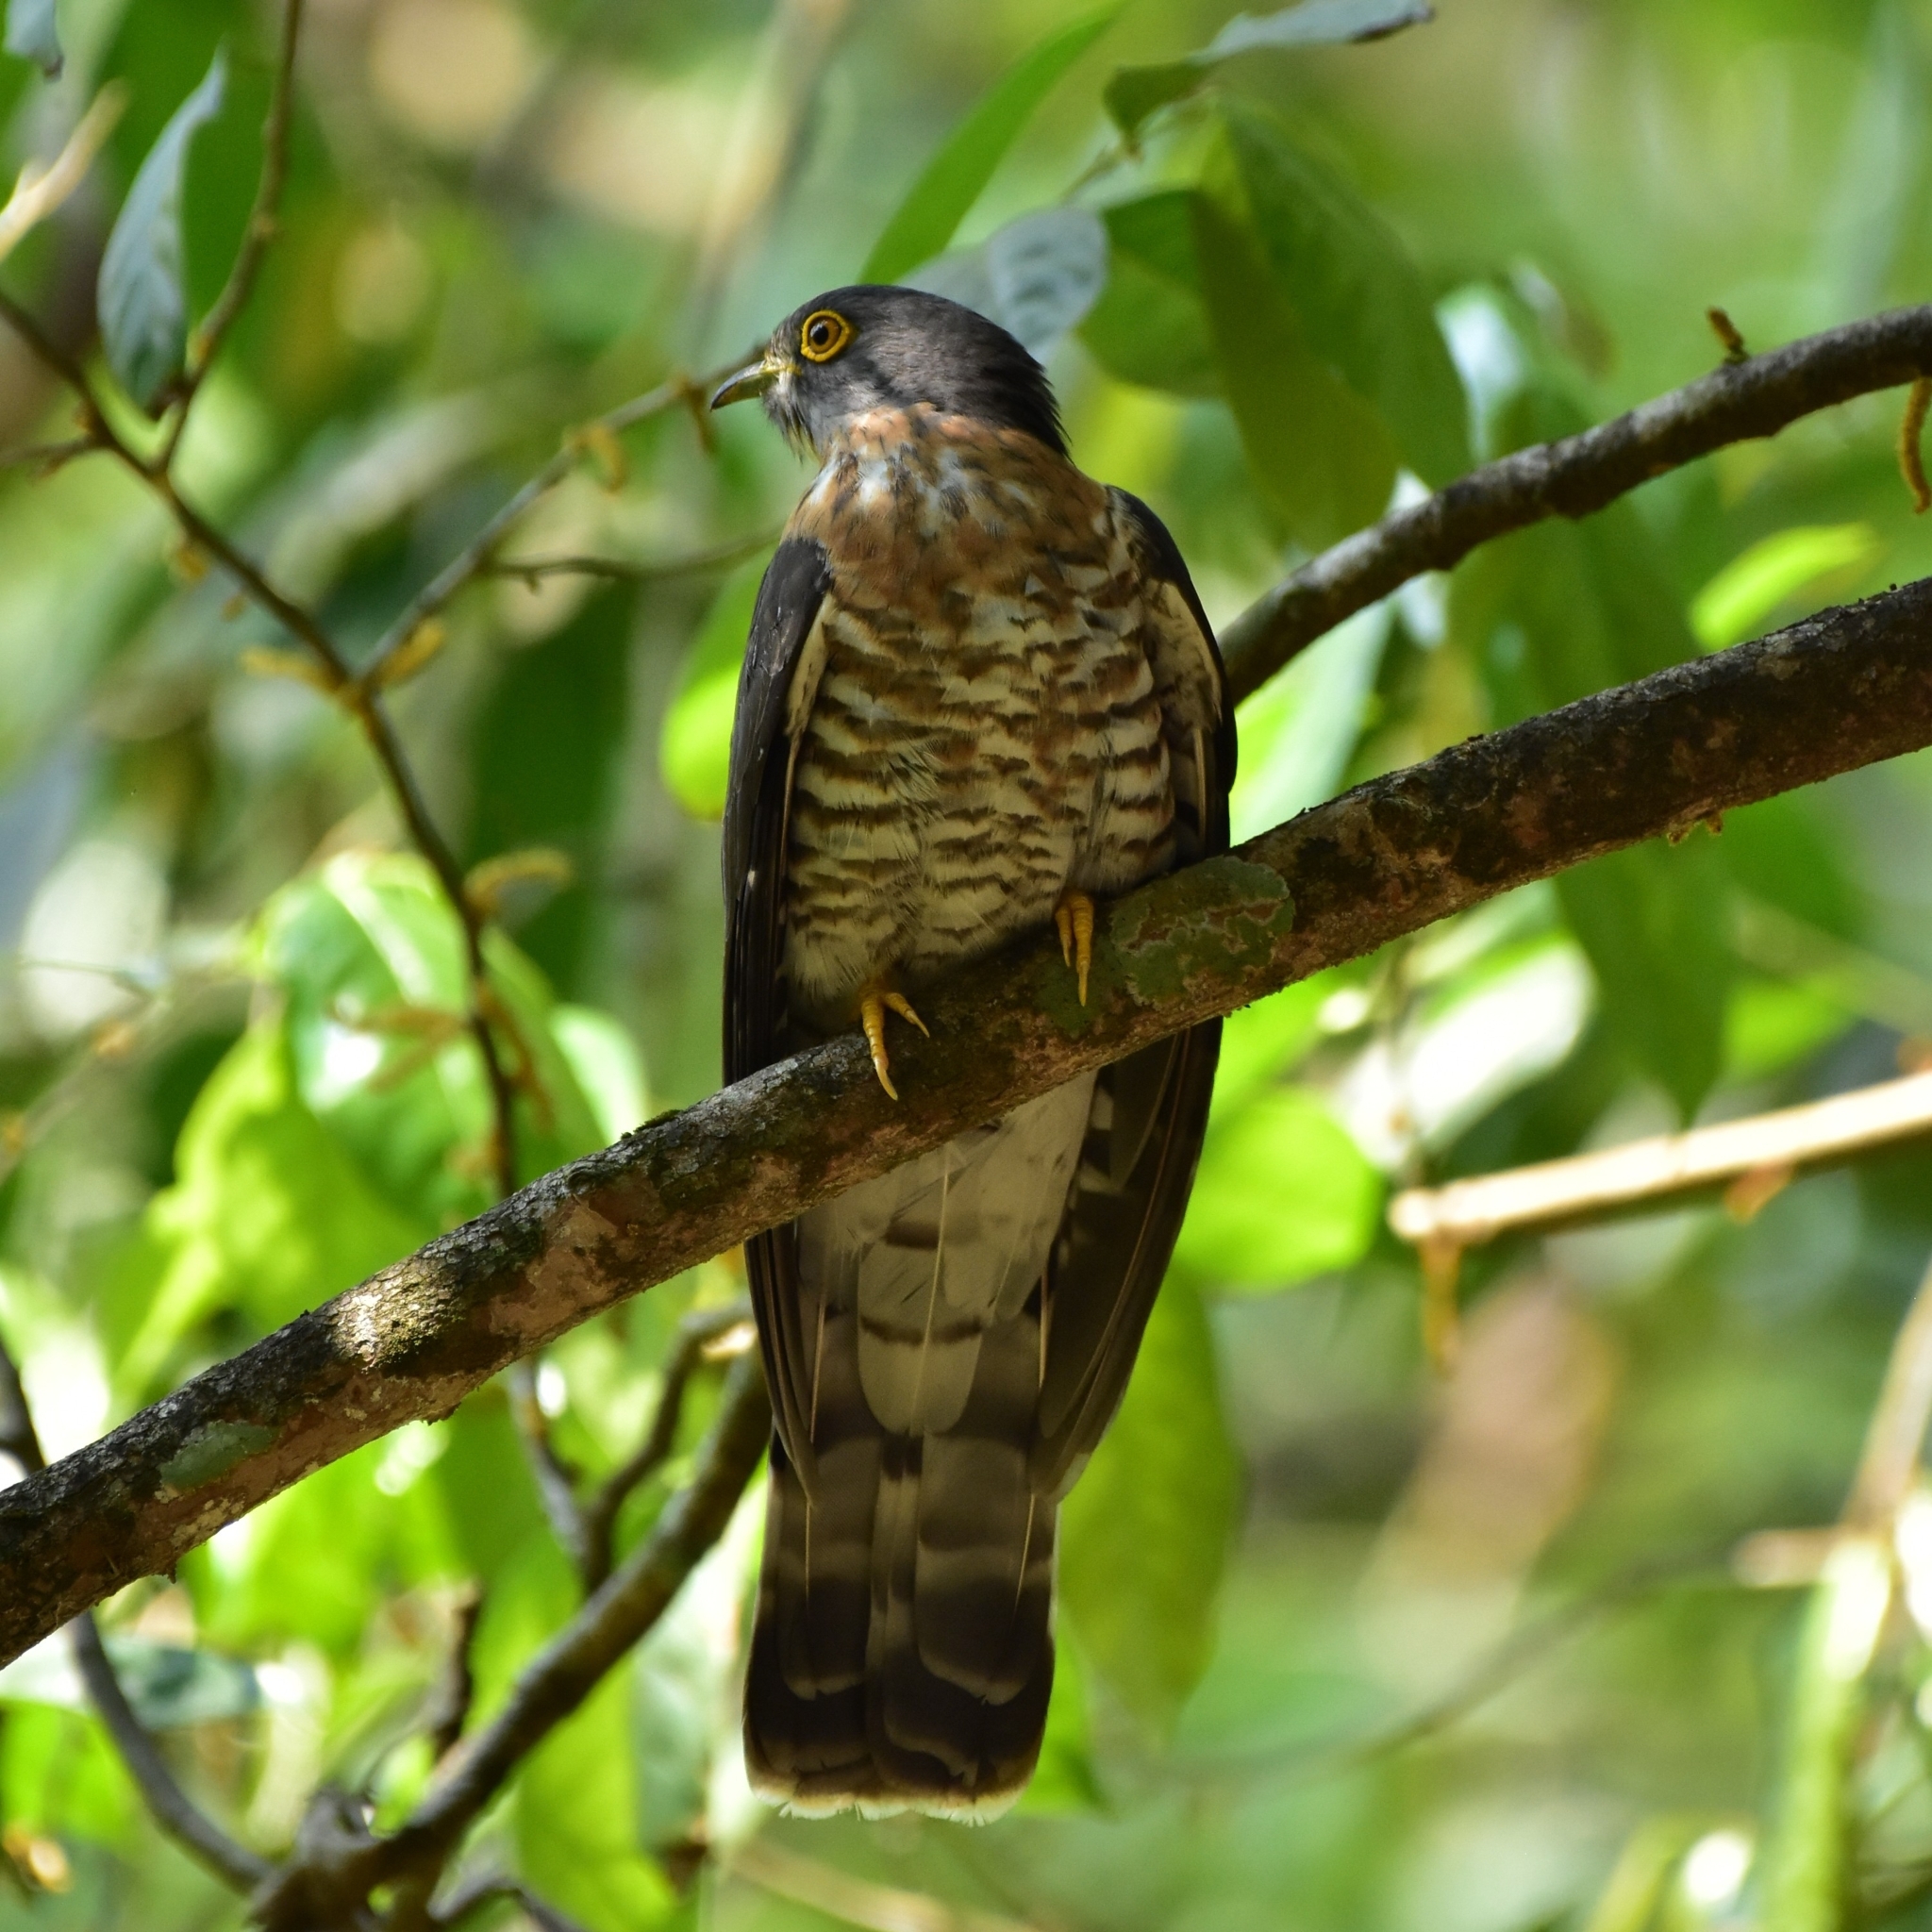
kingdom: Animalia
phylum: Chordata
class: Aves
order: Cuculiformes
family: Cuculidae
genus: Cuculus
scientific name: Cuculus sparverioides
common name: Large hawk cuckoo
